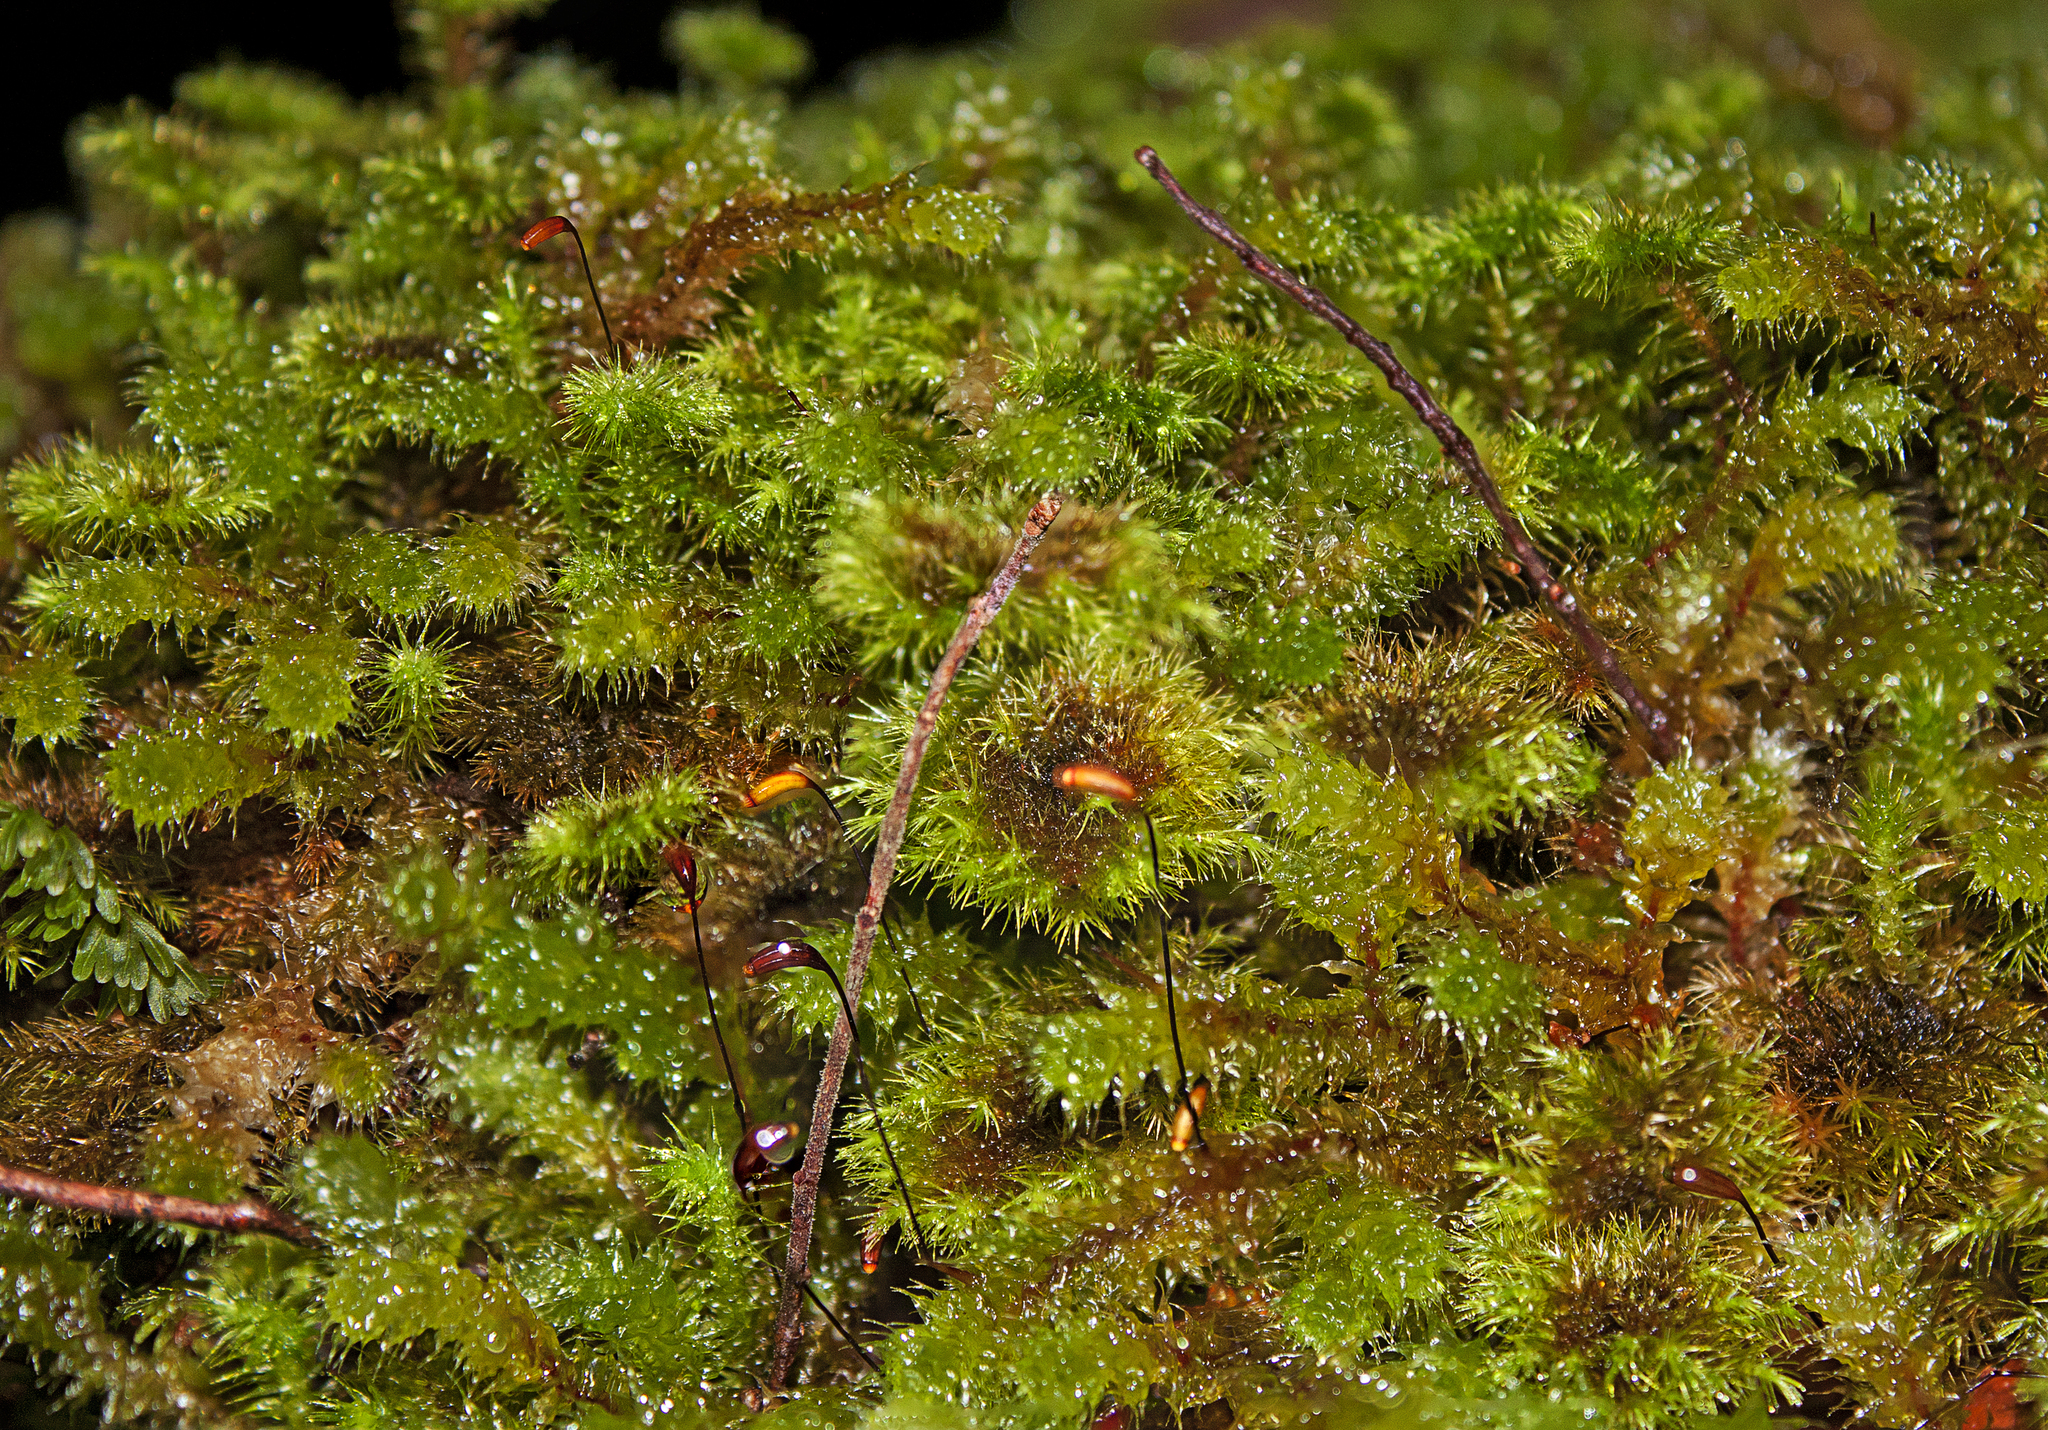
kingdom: Plantae
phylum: Bryophyta
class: Bryopsida
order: Ptychomniales
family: Ptychomniaceae
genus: Ptychomnion
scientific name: Ptychomnion aciculare
